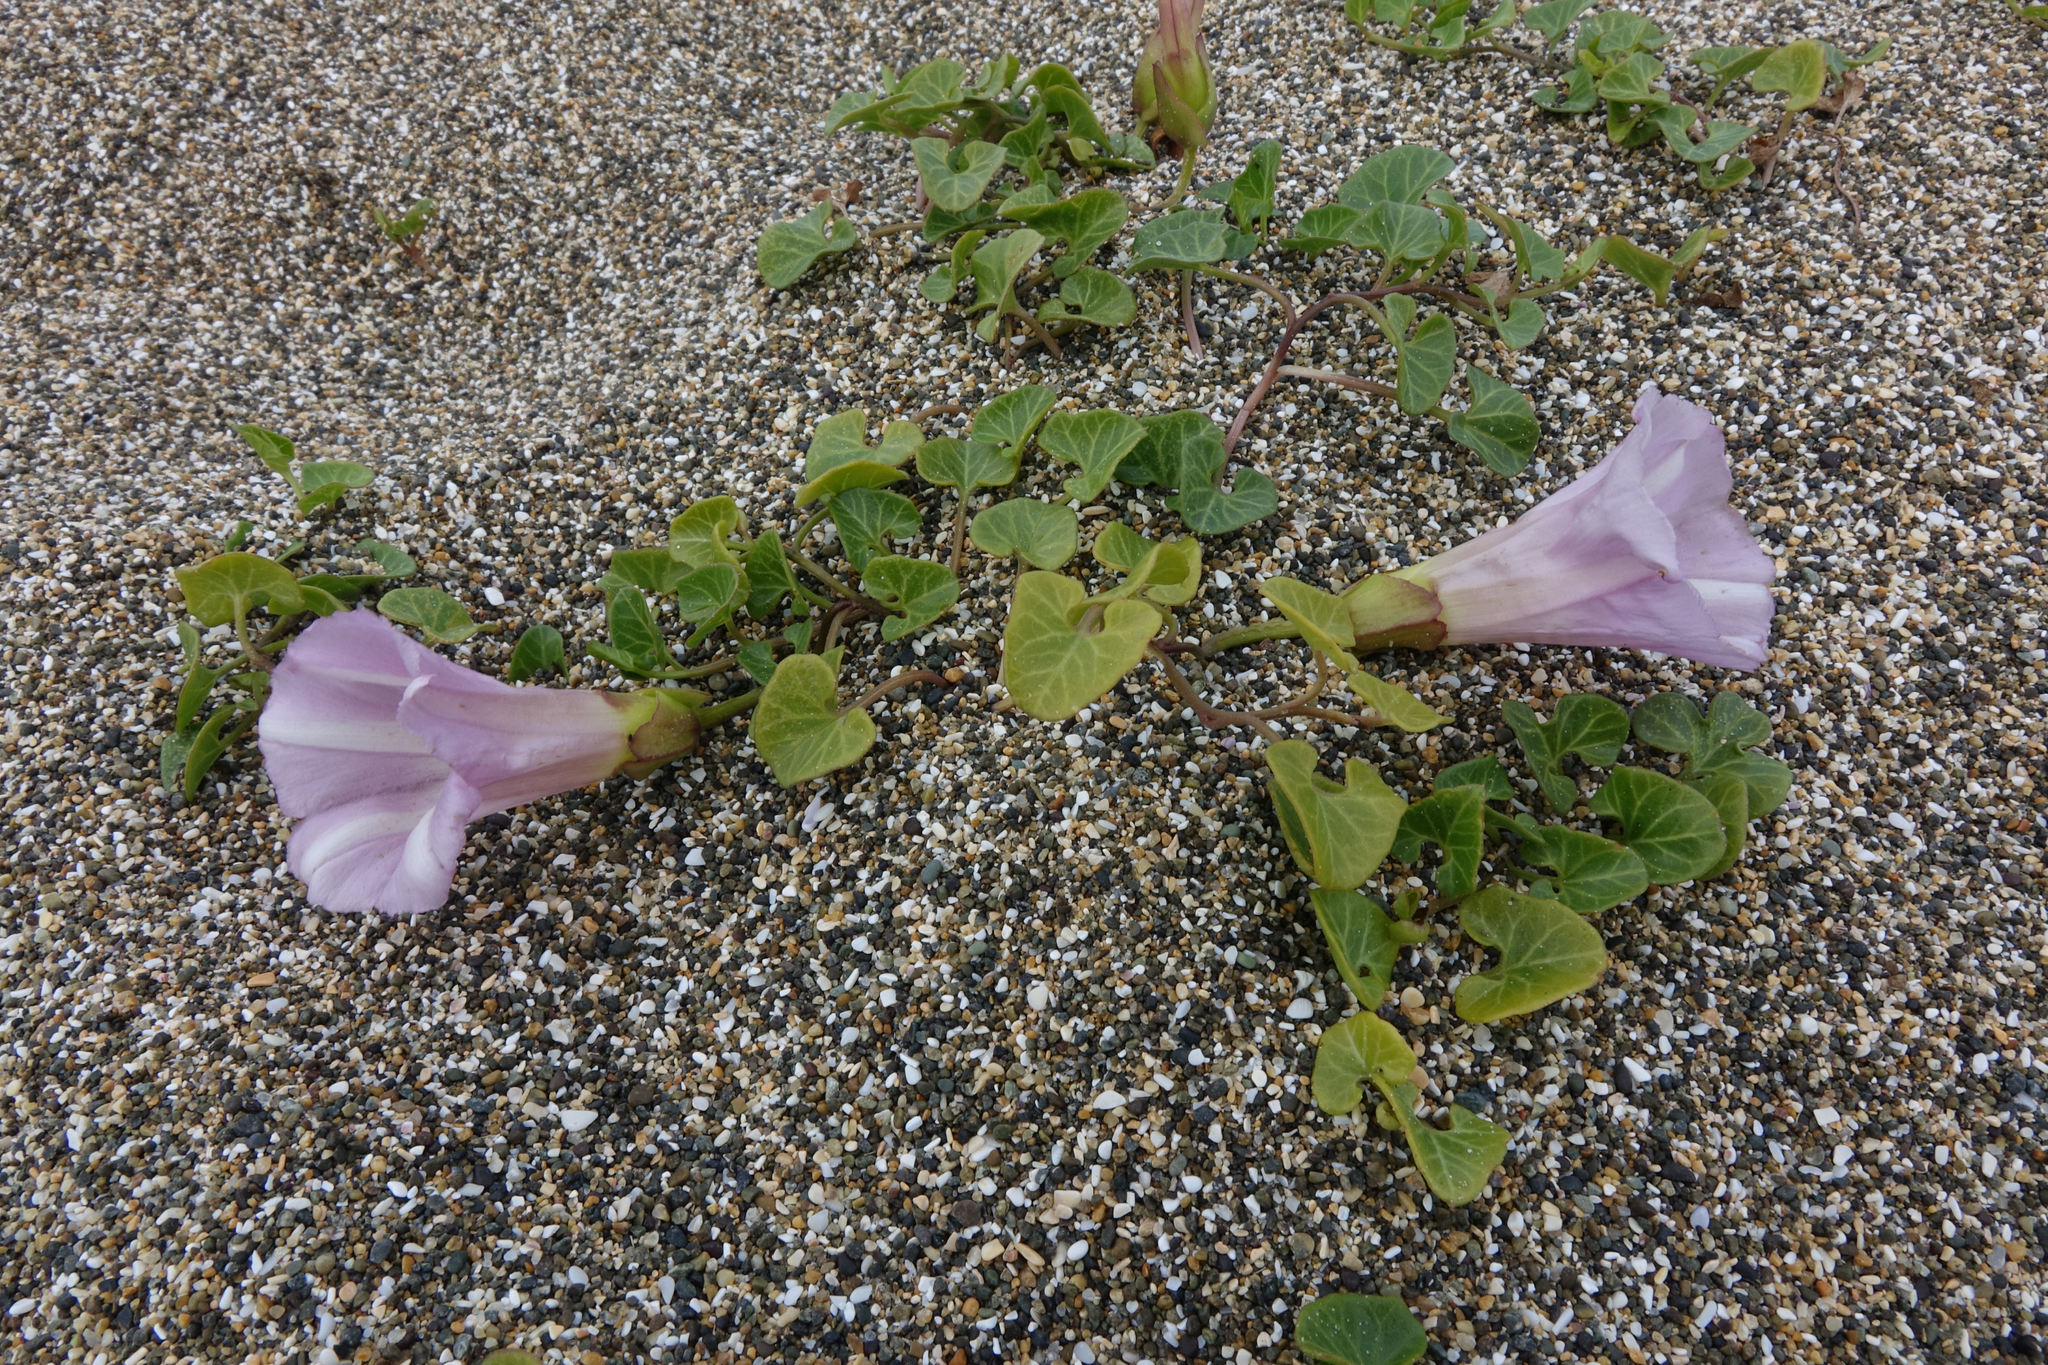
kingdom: Plantae
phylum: Tracheophyta
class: Magnoliopsida
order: Solanales
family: Convolvulaceae
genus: Calystegia
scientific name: Calystegia soldanella
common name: Sea bindweed
